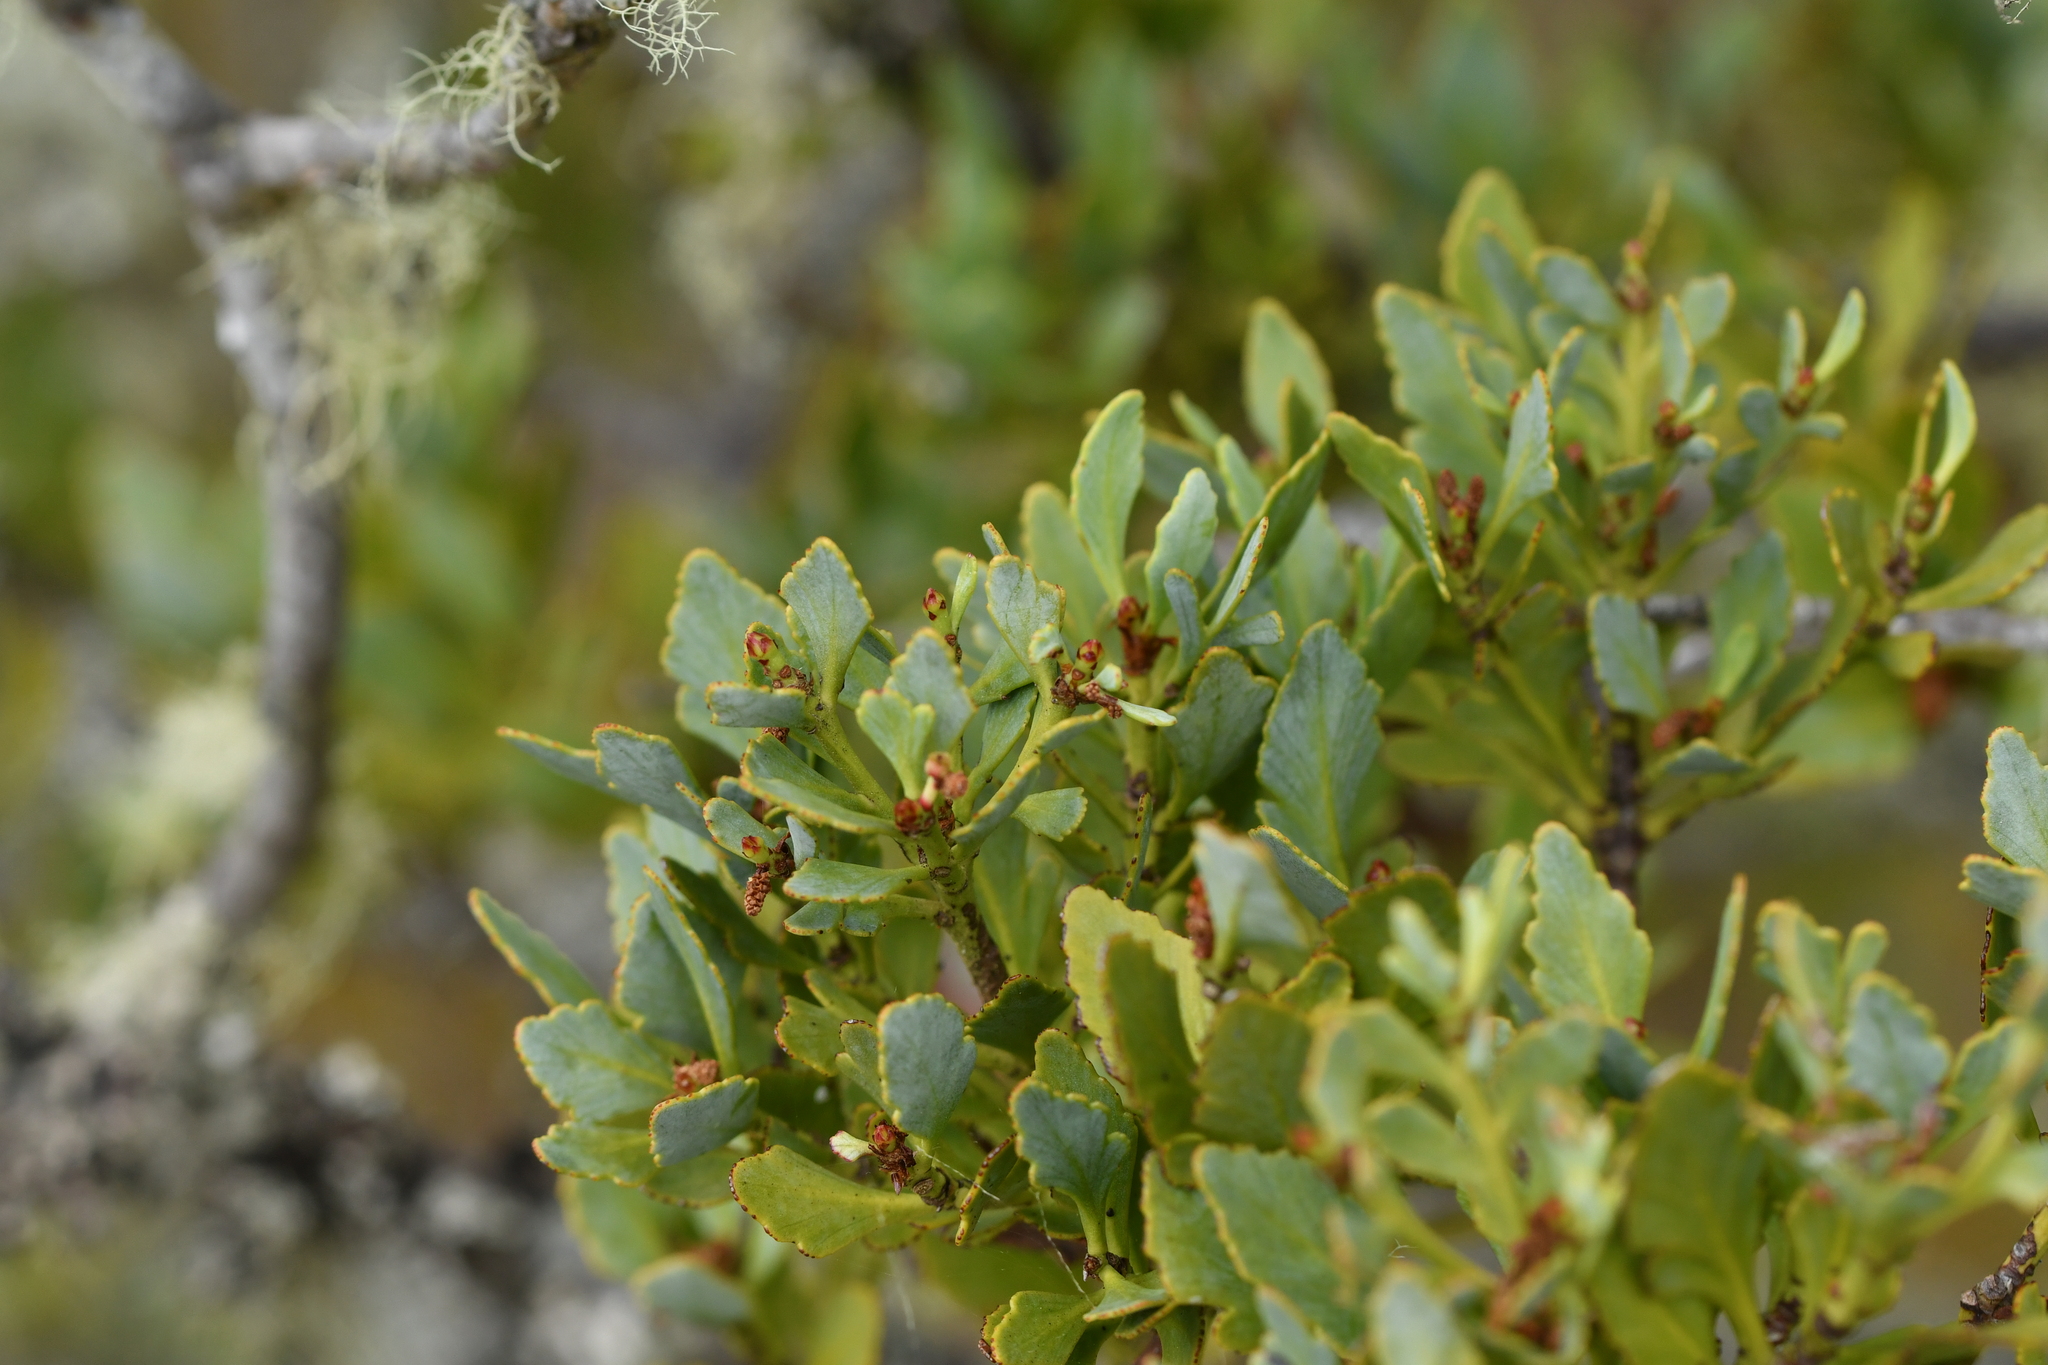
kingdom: Plantae
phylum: Tracheophyta
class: Pinopsida
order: Pinales
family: Phyllocladaceae
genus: Phyllocladus
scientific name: Phyllocladus trichomanoides
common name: Celery pine
